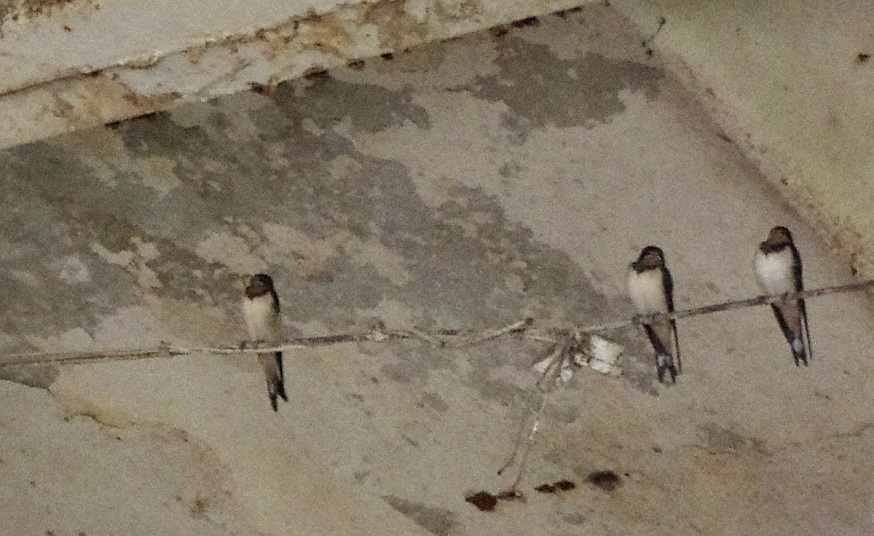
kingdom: Animalia
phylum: Chordata
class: Aves
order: Passeriformes
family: Hirundinidae
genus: Hirundo
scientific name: Hirundo rustica
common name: Barn swallow
